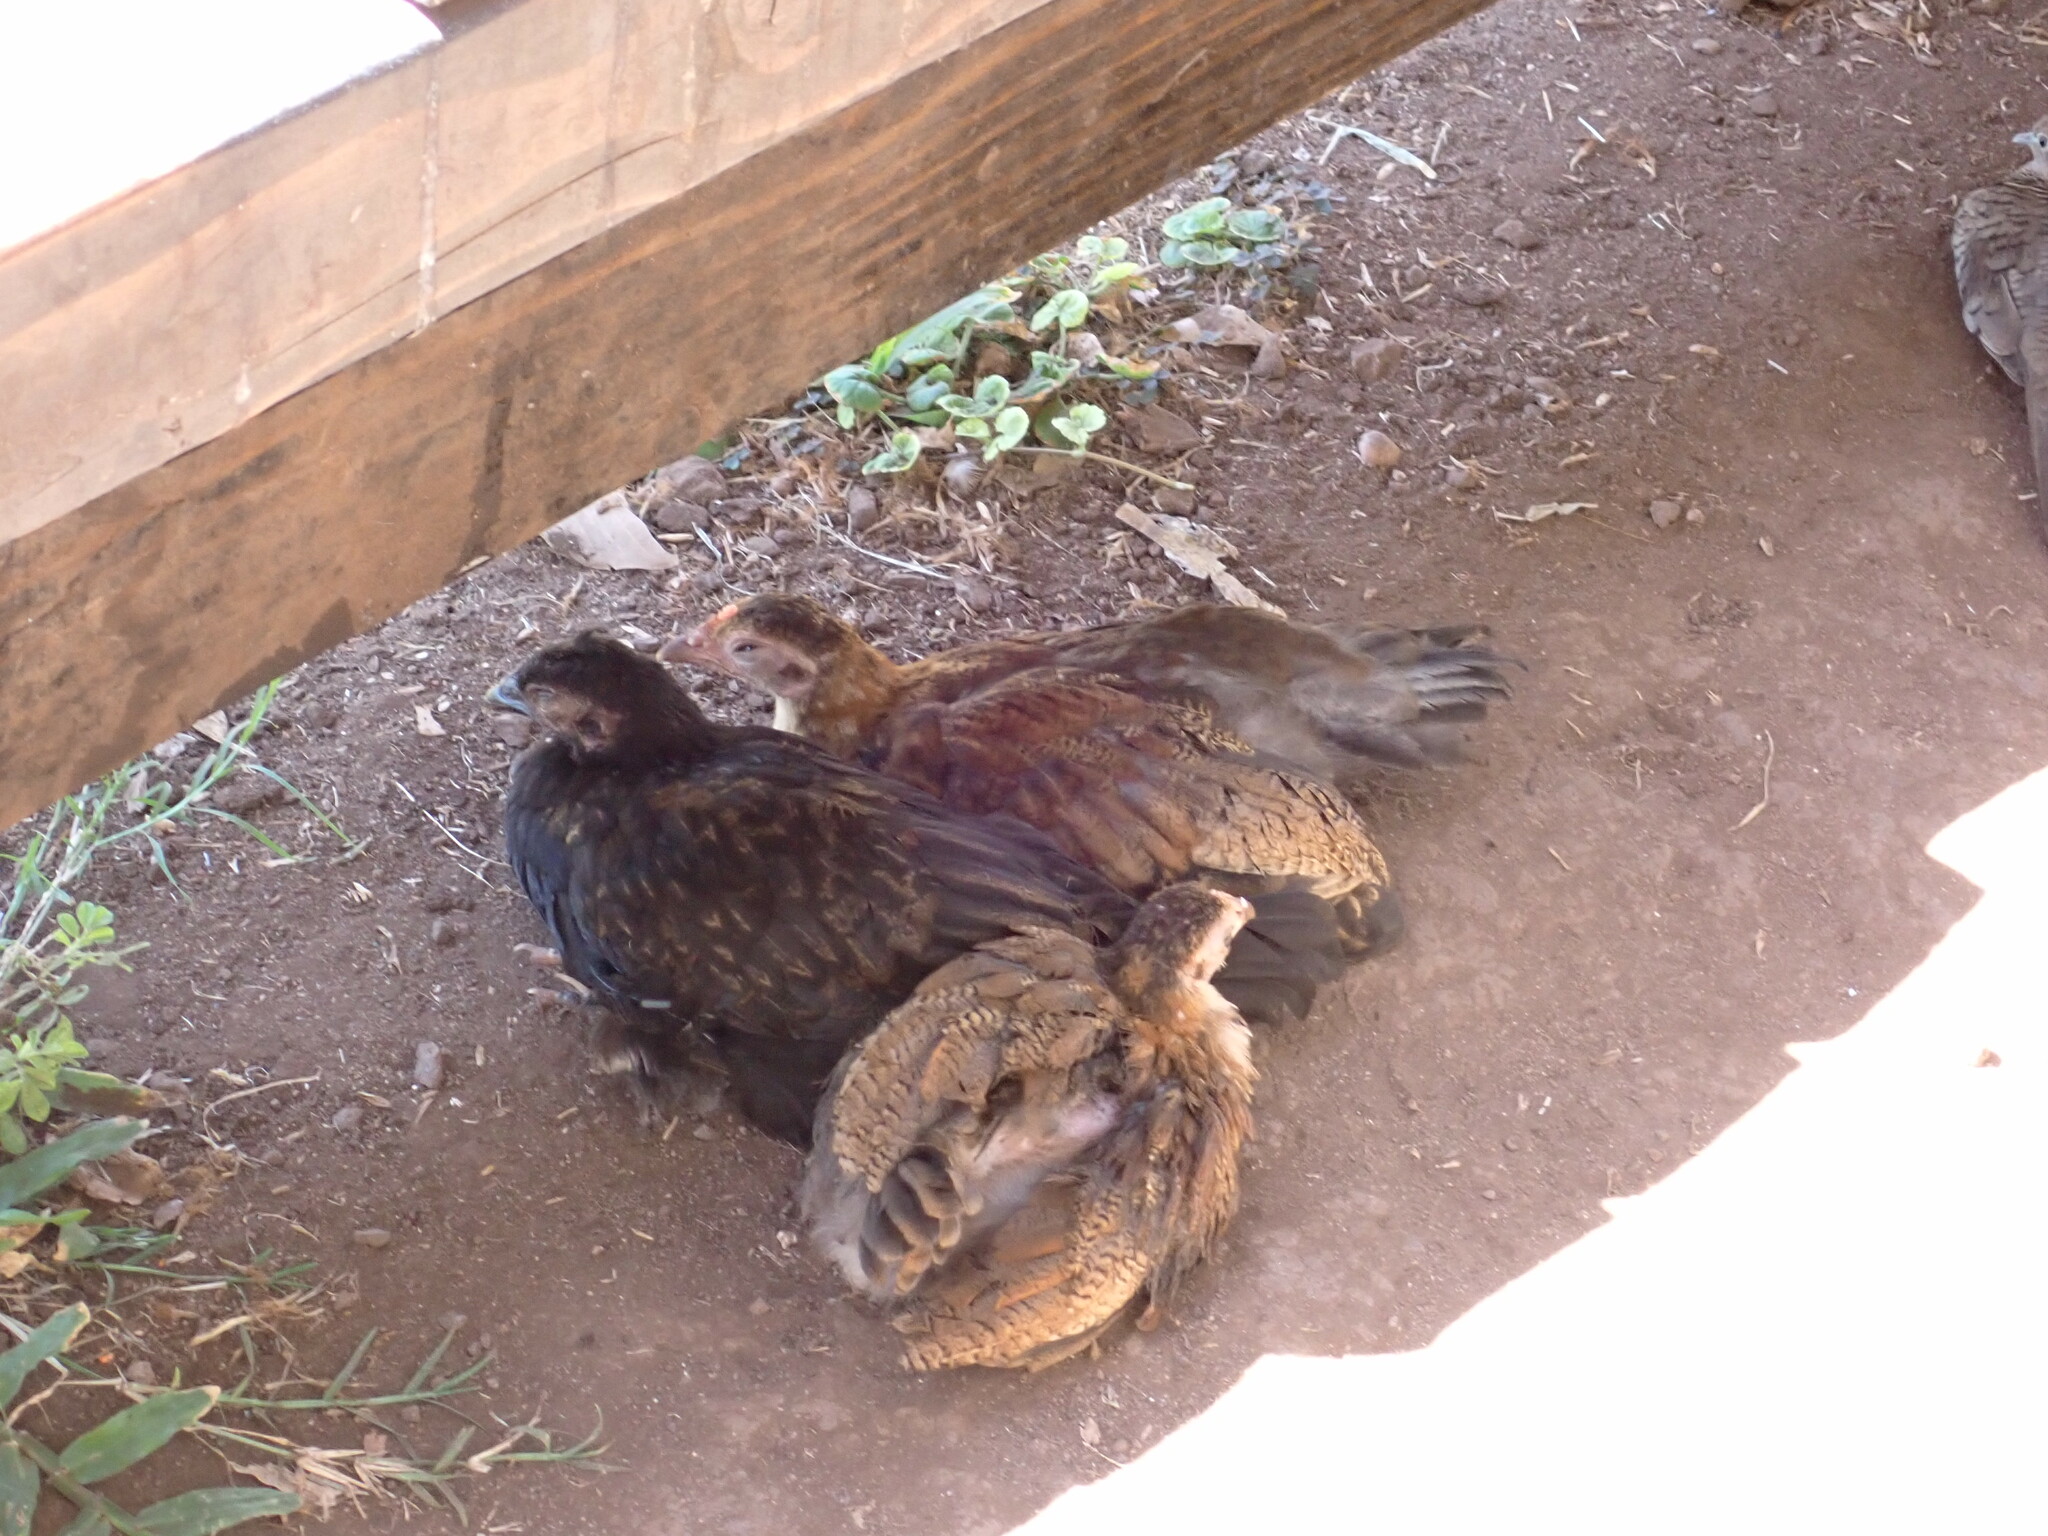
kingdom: Animalia
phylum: Chordata
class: Aves
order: Galliformes
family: Phasianidae
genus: Gallus
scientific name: Gallus gallus
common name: Red junglefowl
